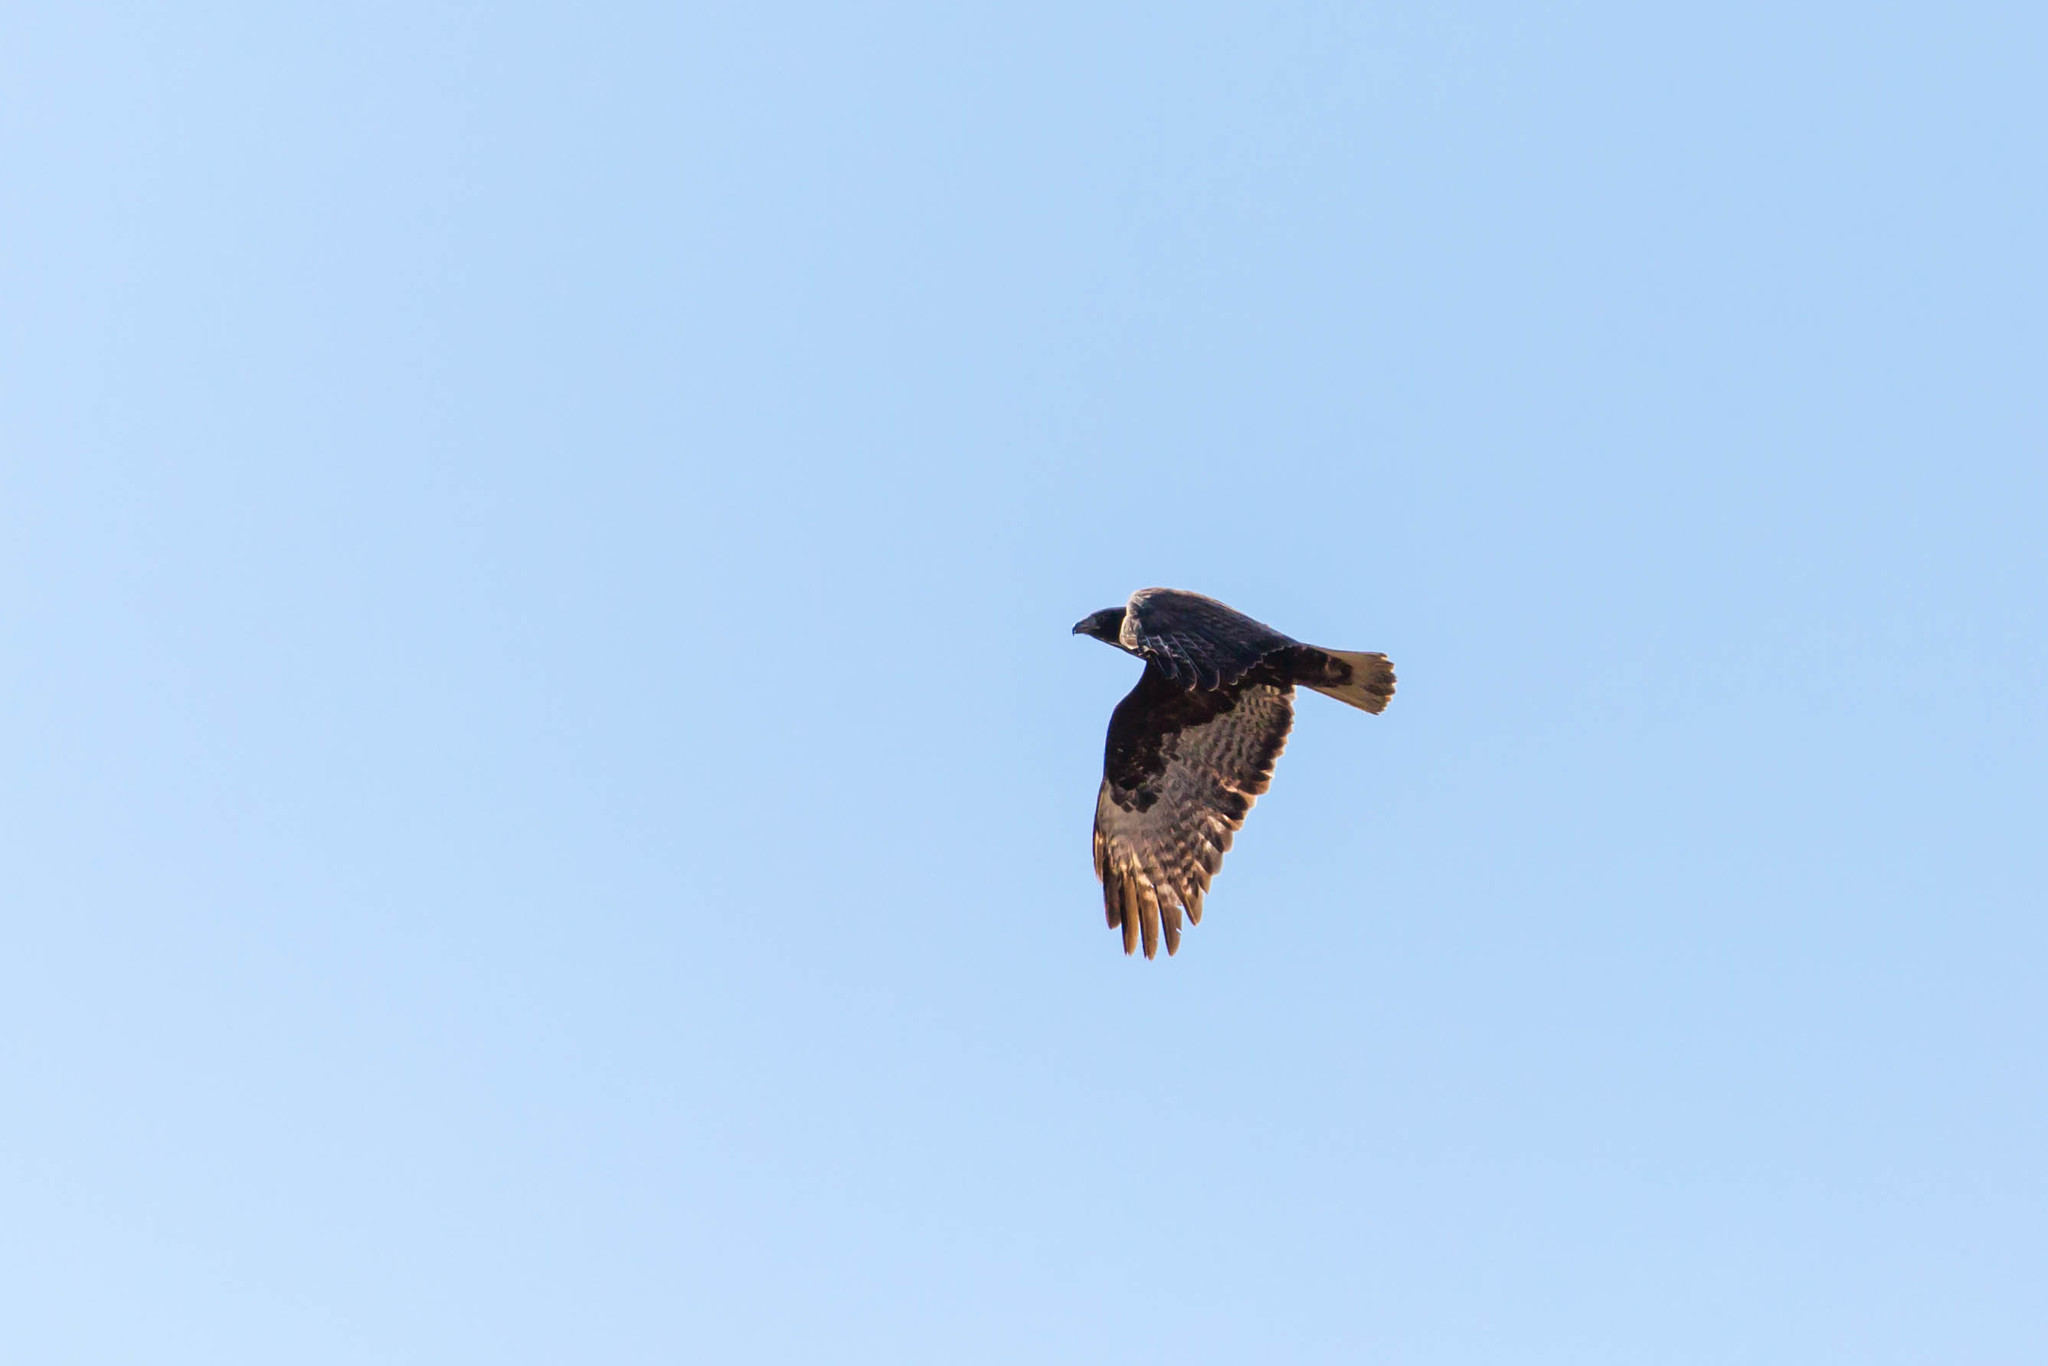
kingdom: Animalia
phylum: Chordata
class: Aves
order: Accipitriformes
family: Accipitridae
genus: Buteo
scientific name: Buteo jamaicensis
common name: Red-tailed hawk
